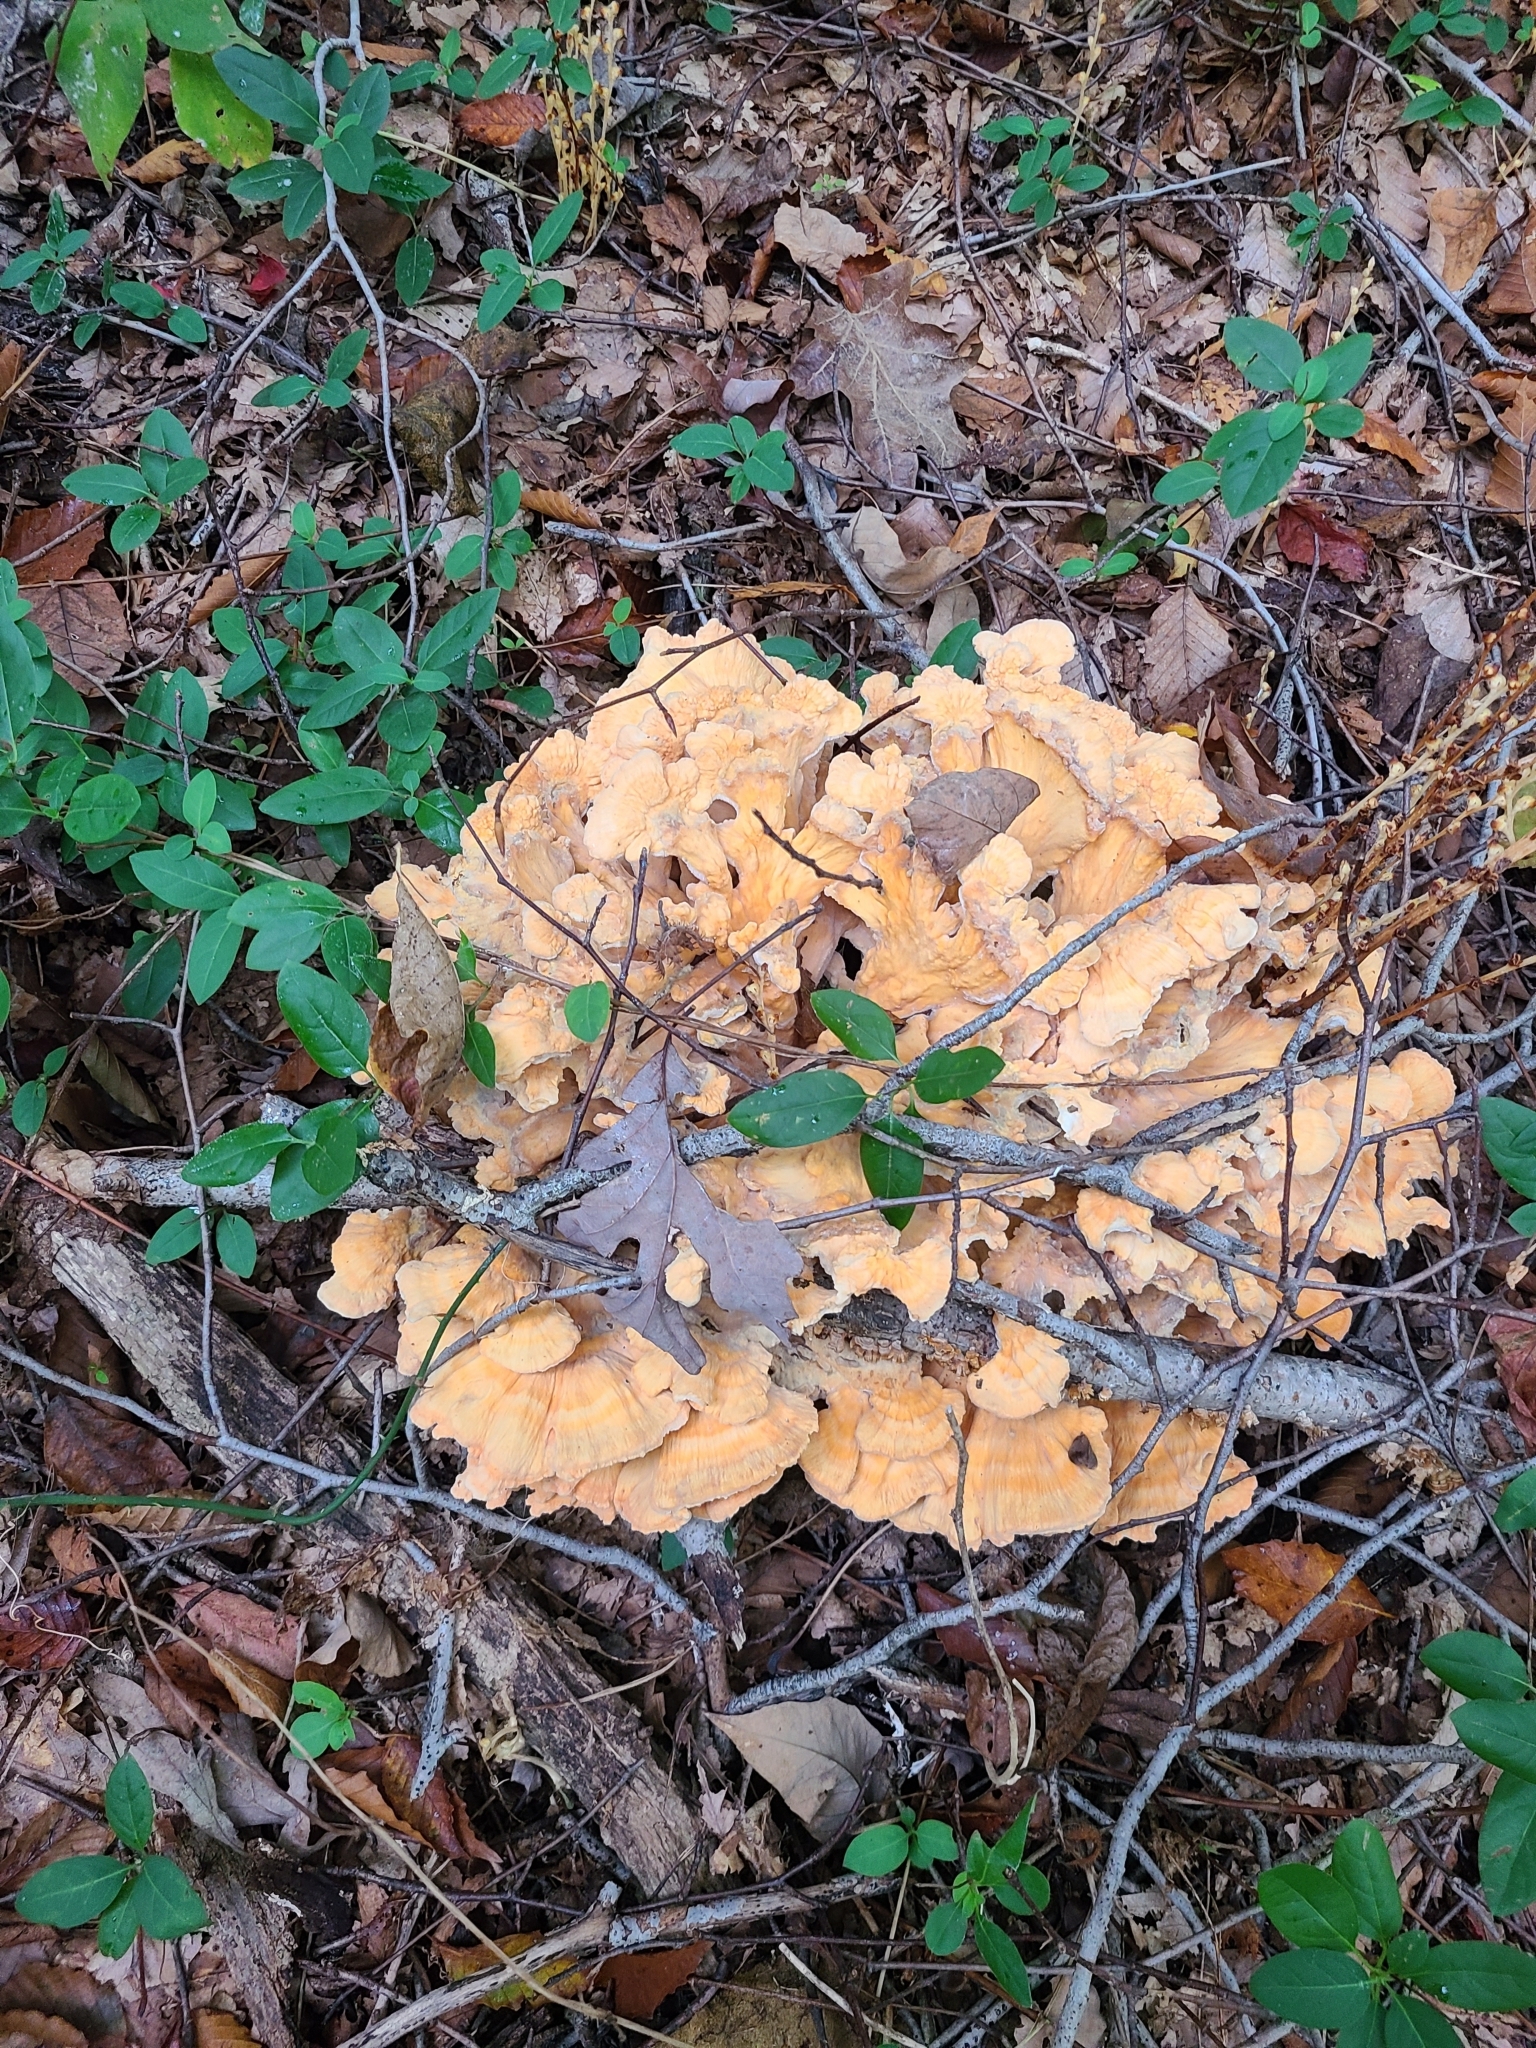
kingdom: Fungi
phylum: Basidiomycota
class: Agaricomycetes
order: Polyporales
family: Laetiporaceae
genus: Laetiporus
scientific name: Laetiporus sulphureus
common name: Chicken of the woods
